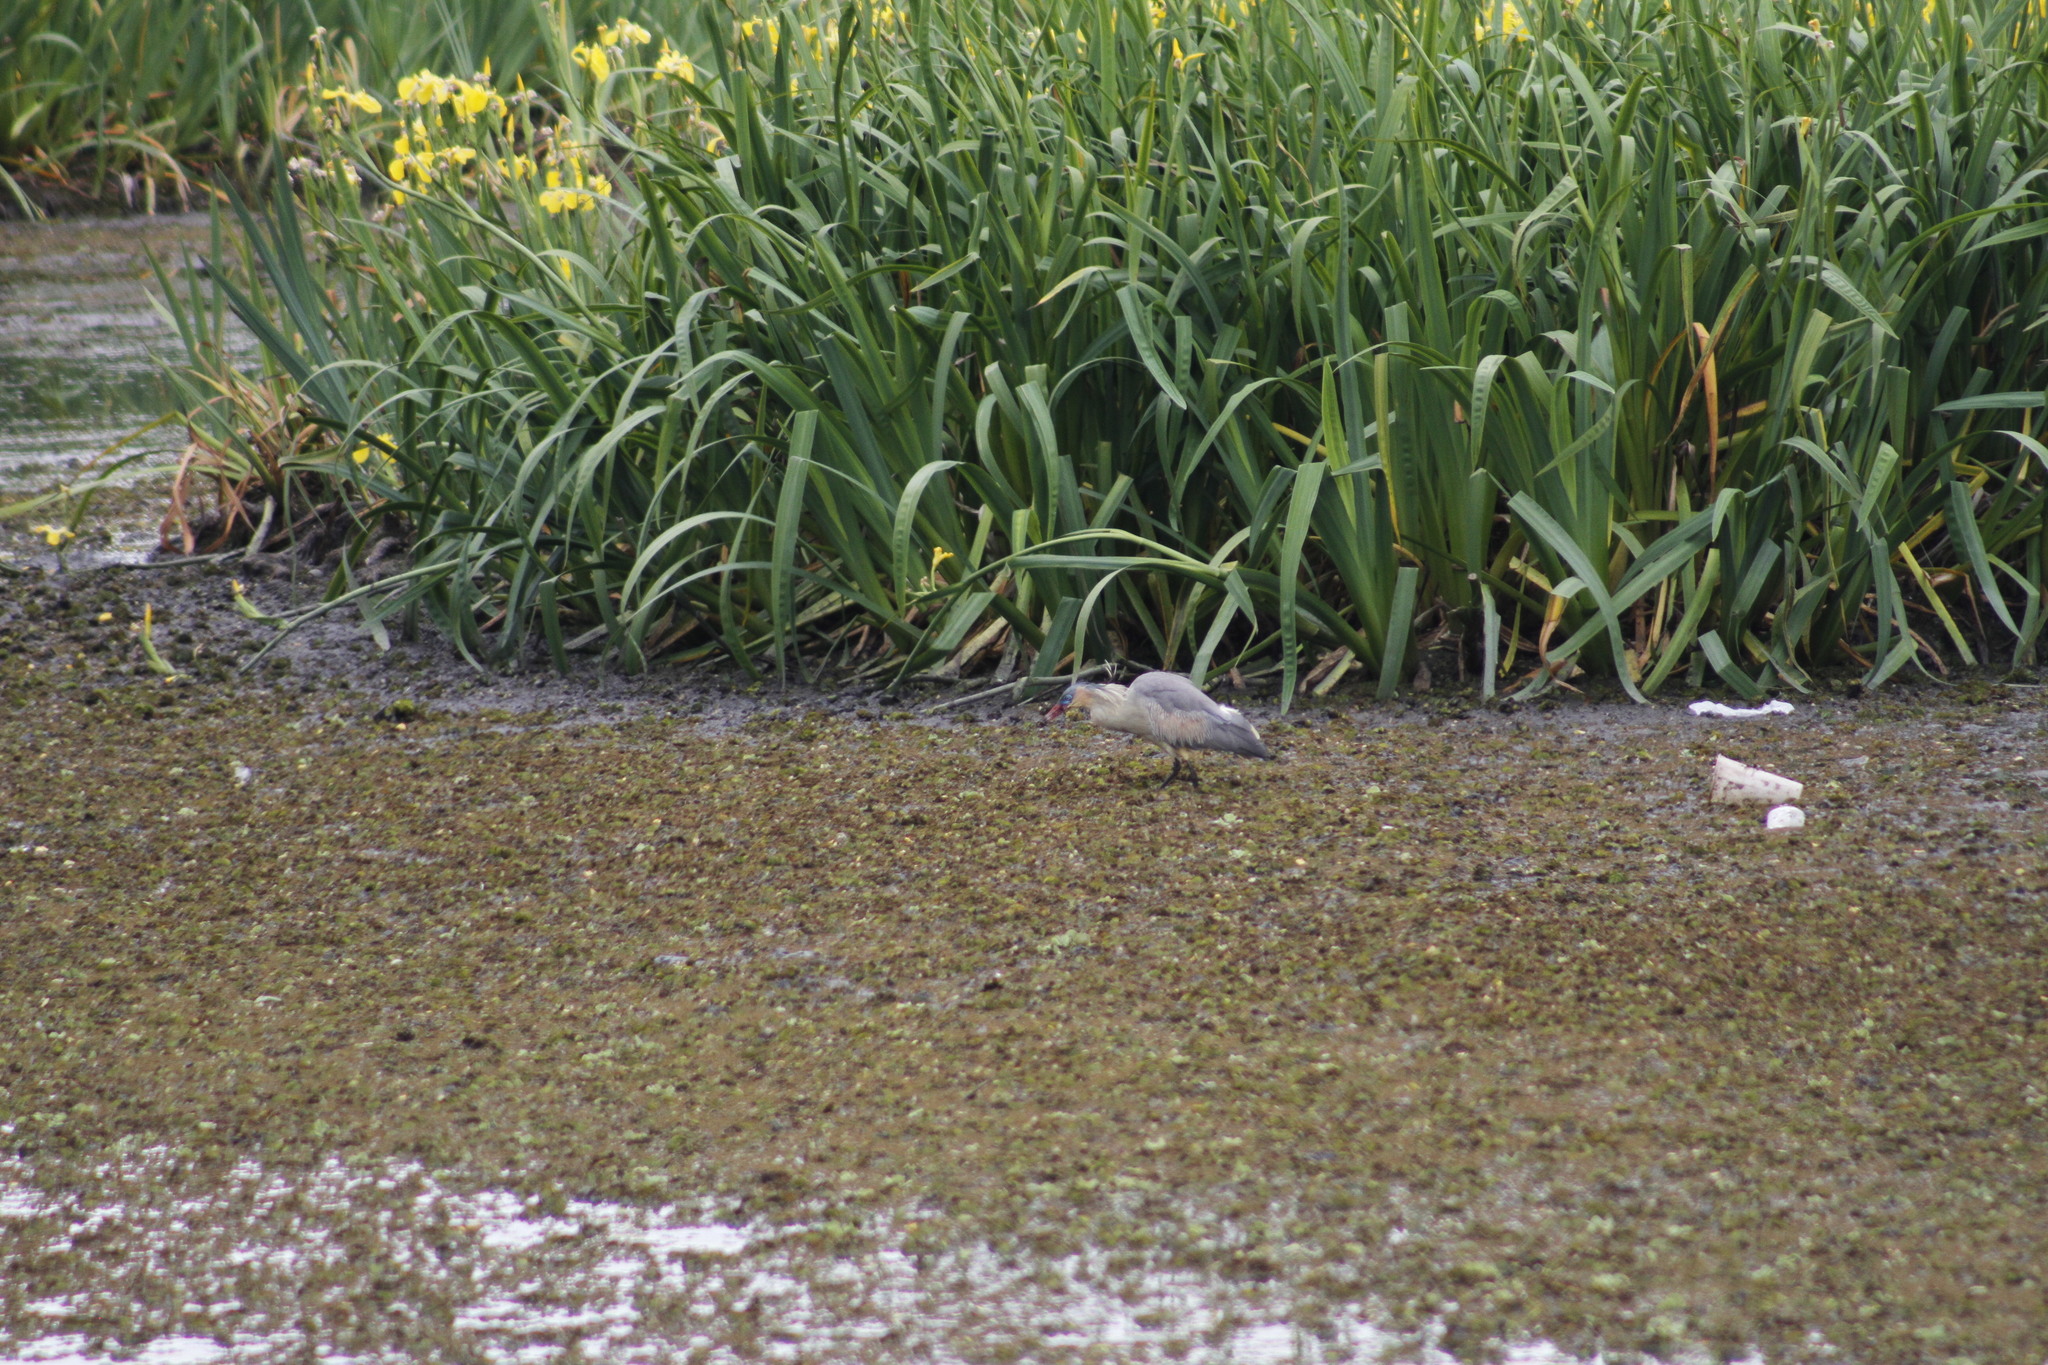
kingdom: Animalia
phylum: Chordata
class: Aves
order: Pelecaniformes
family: Ardeidae
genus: Syrigma
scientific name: Syrigma sibilatrix
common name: Whistling heron
